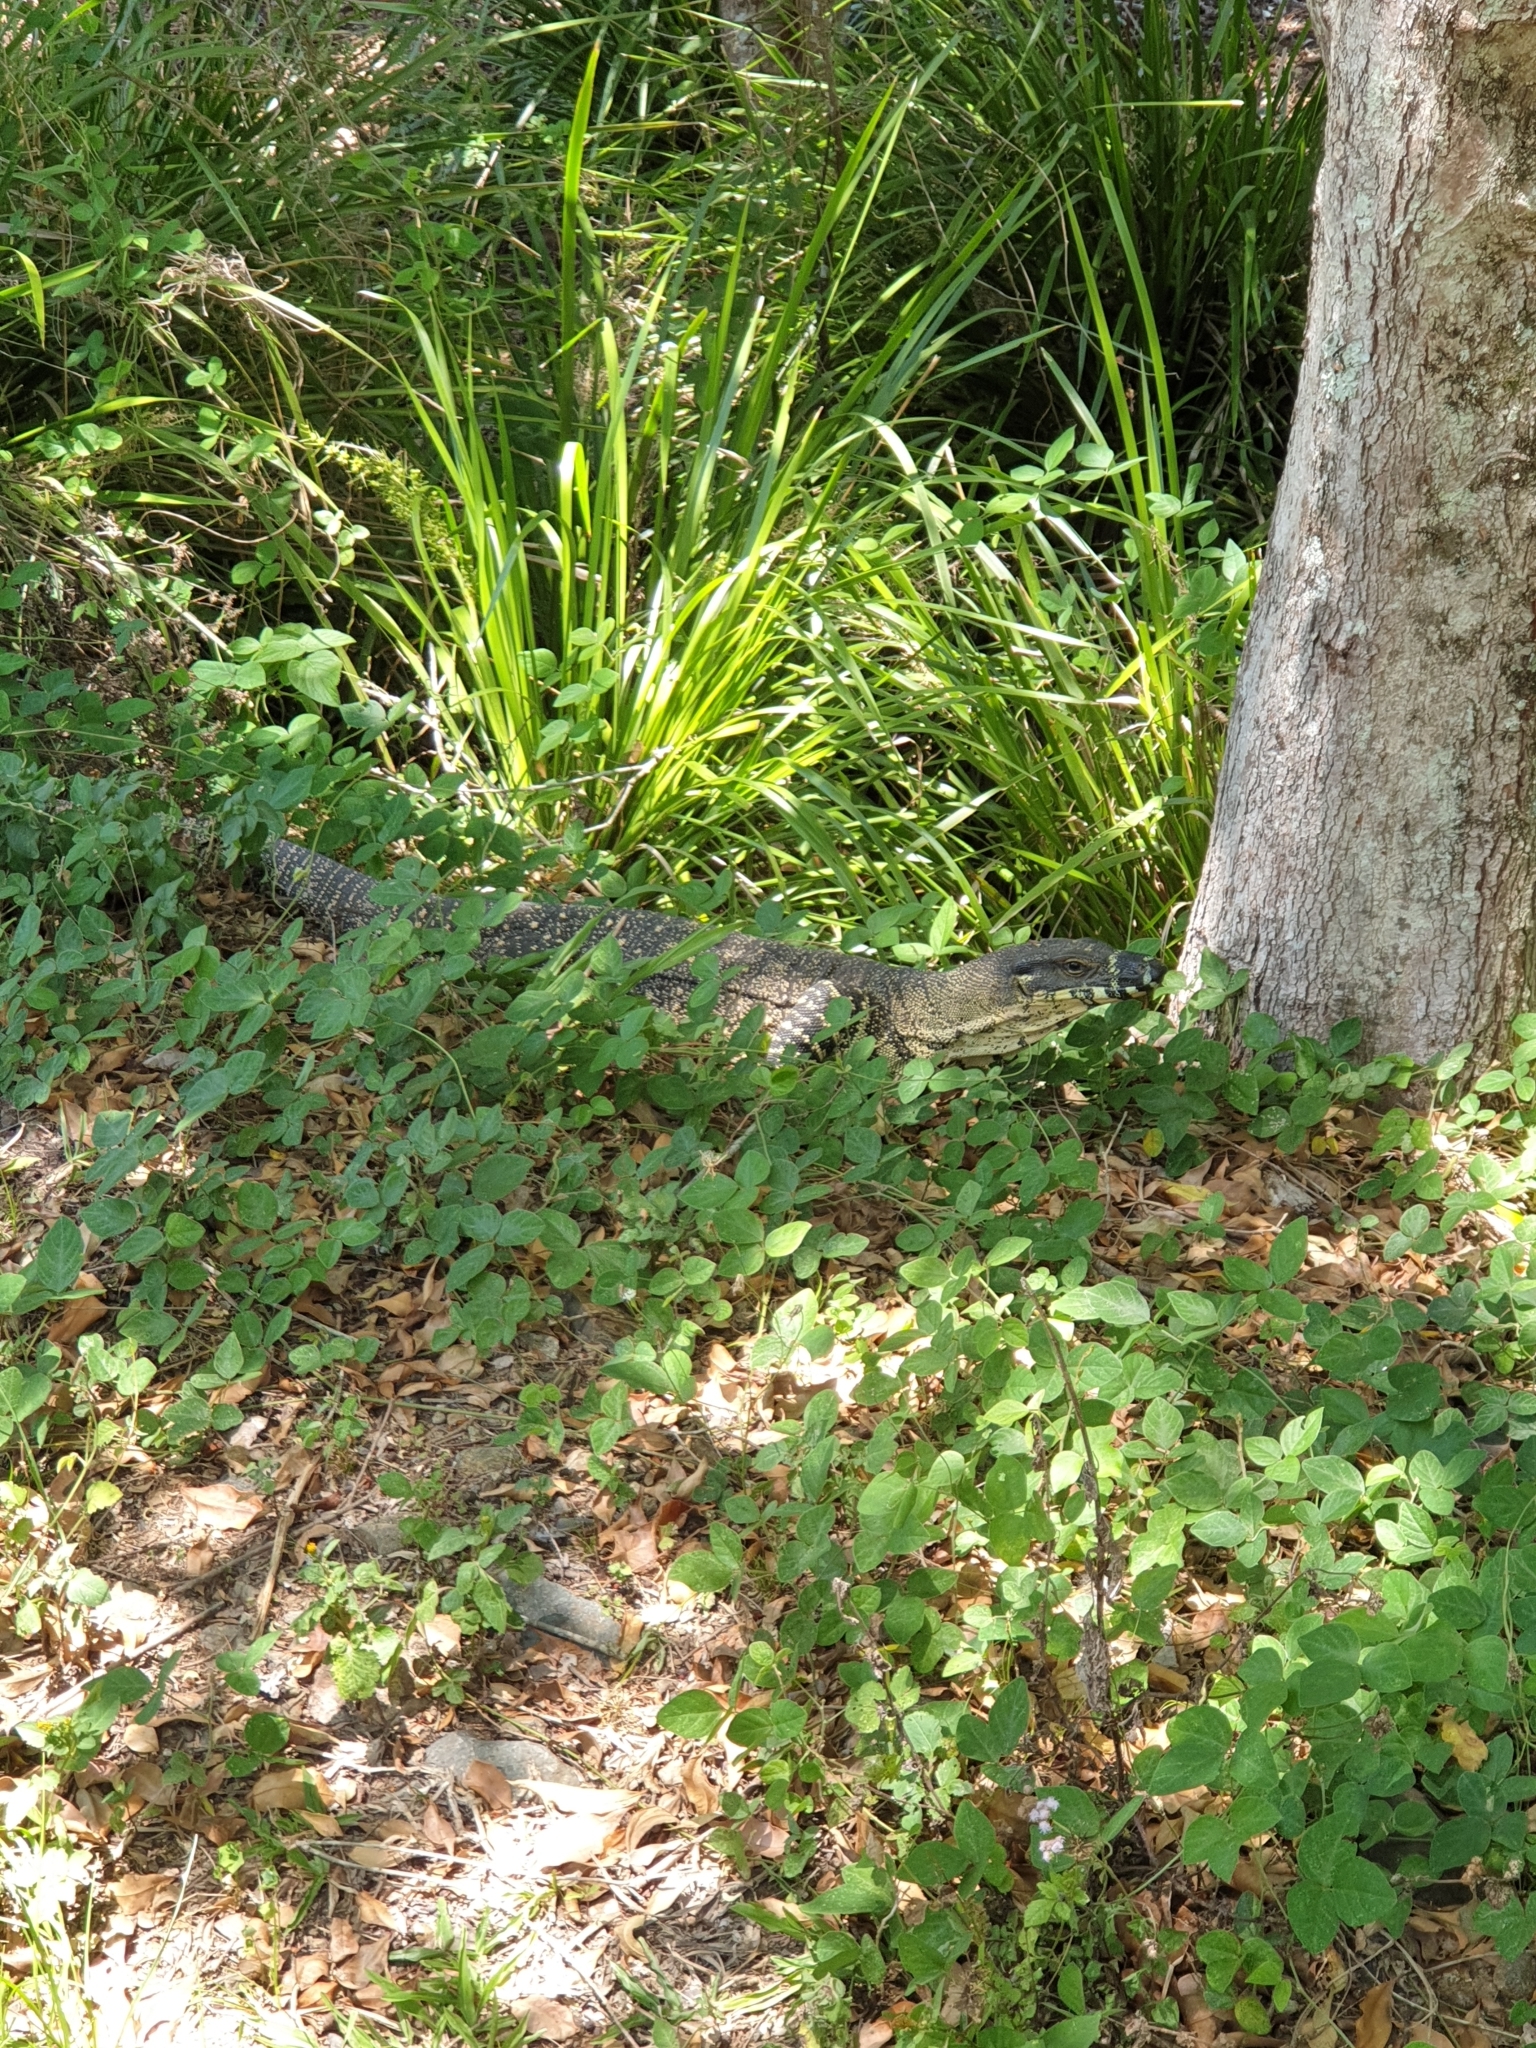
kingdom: Animalia
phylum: Chordata
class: Squamata
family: Varanidae
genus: Varanus
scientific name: Varanus varius
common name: Lace monitor
